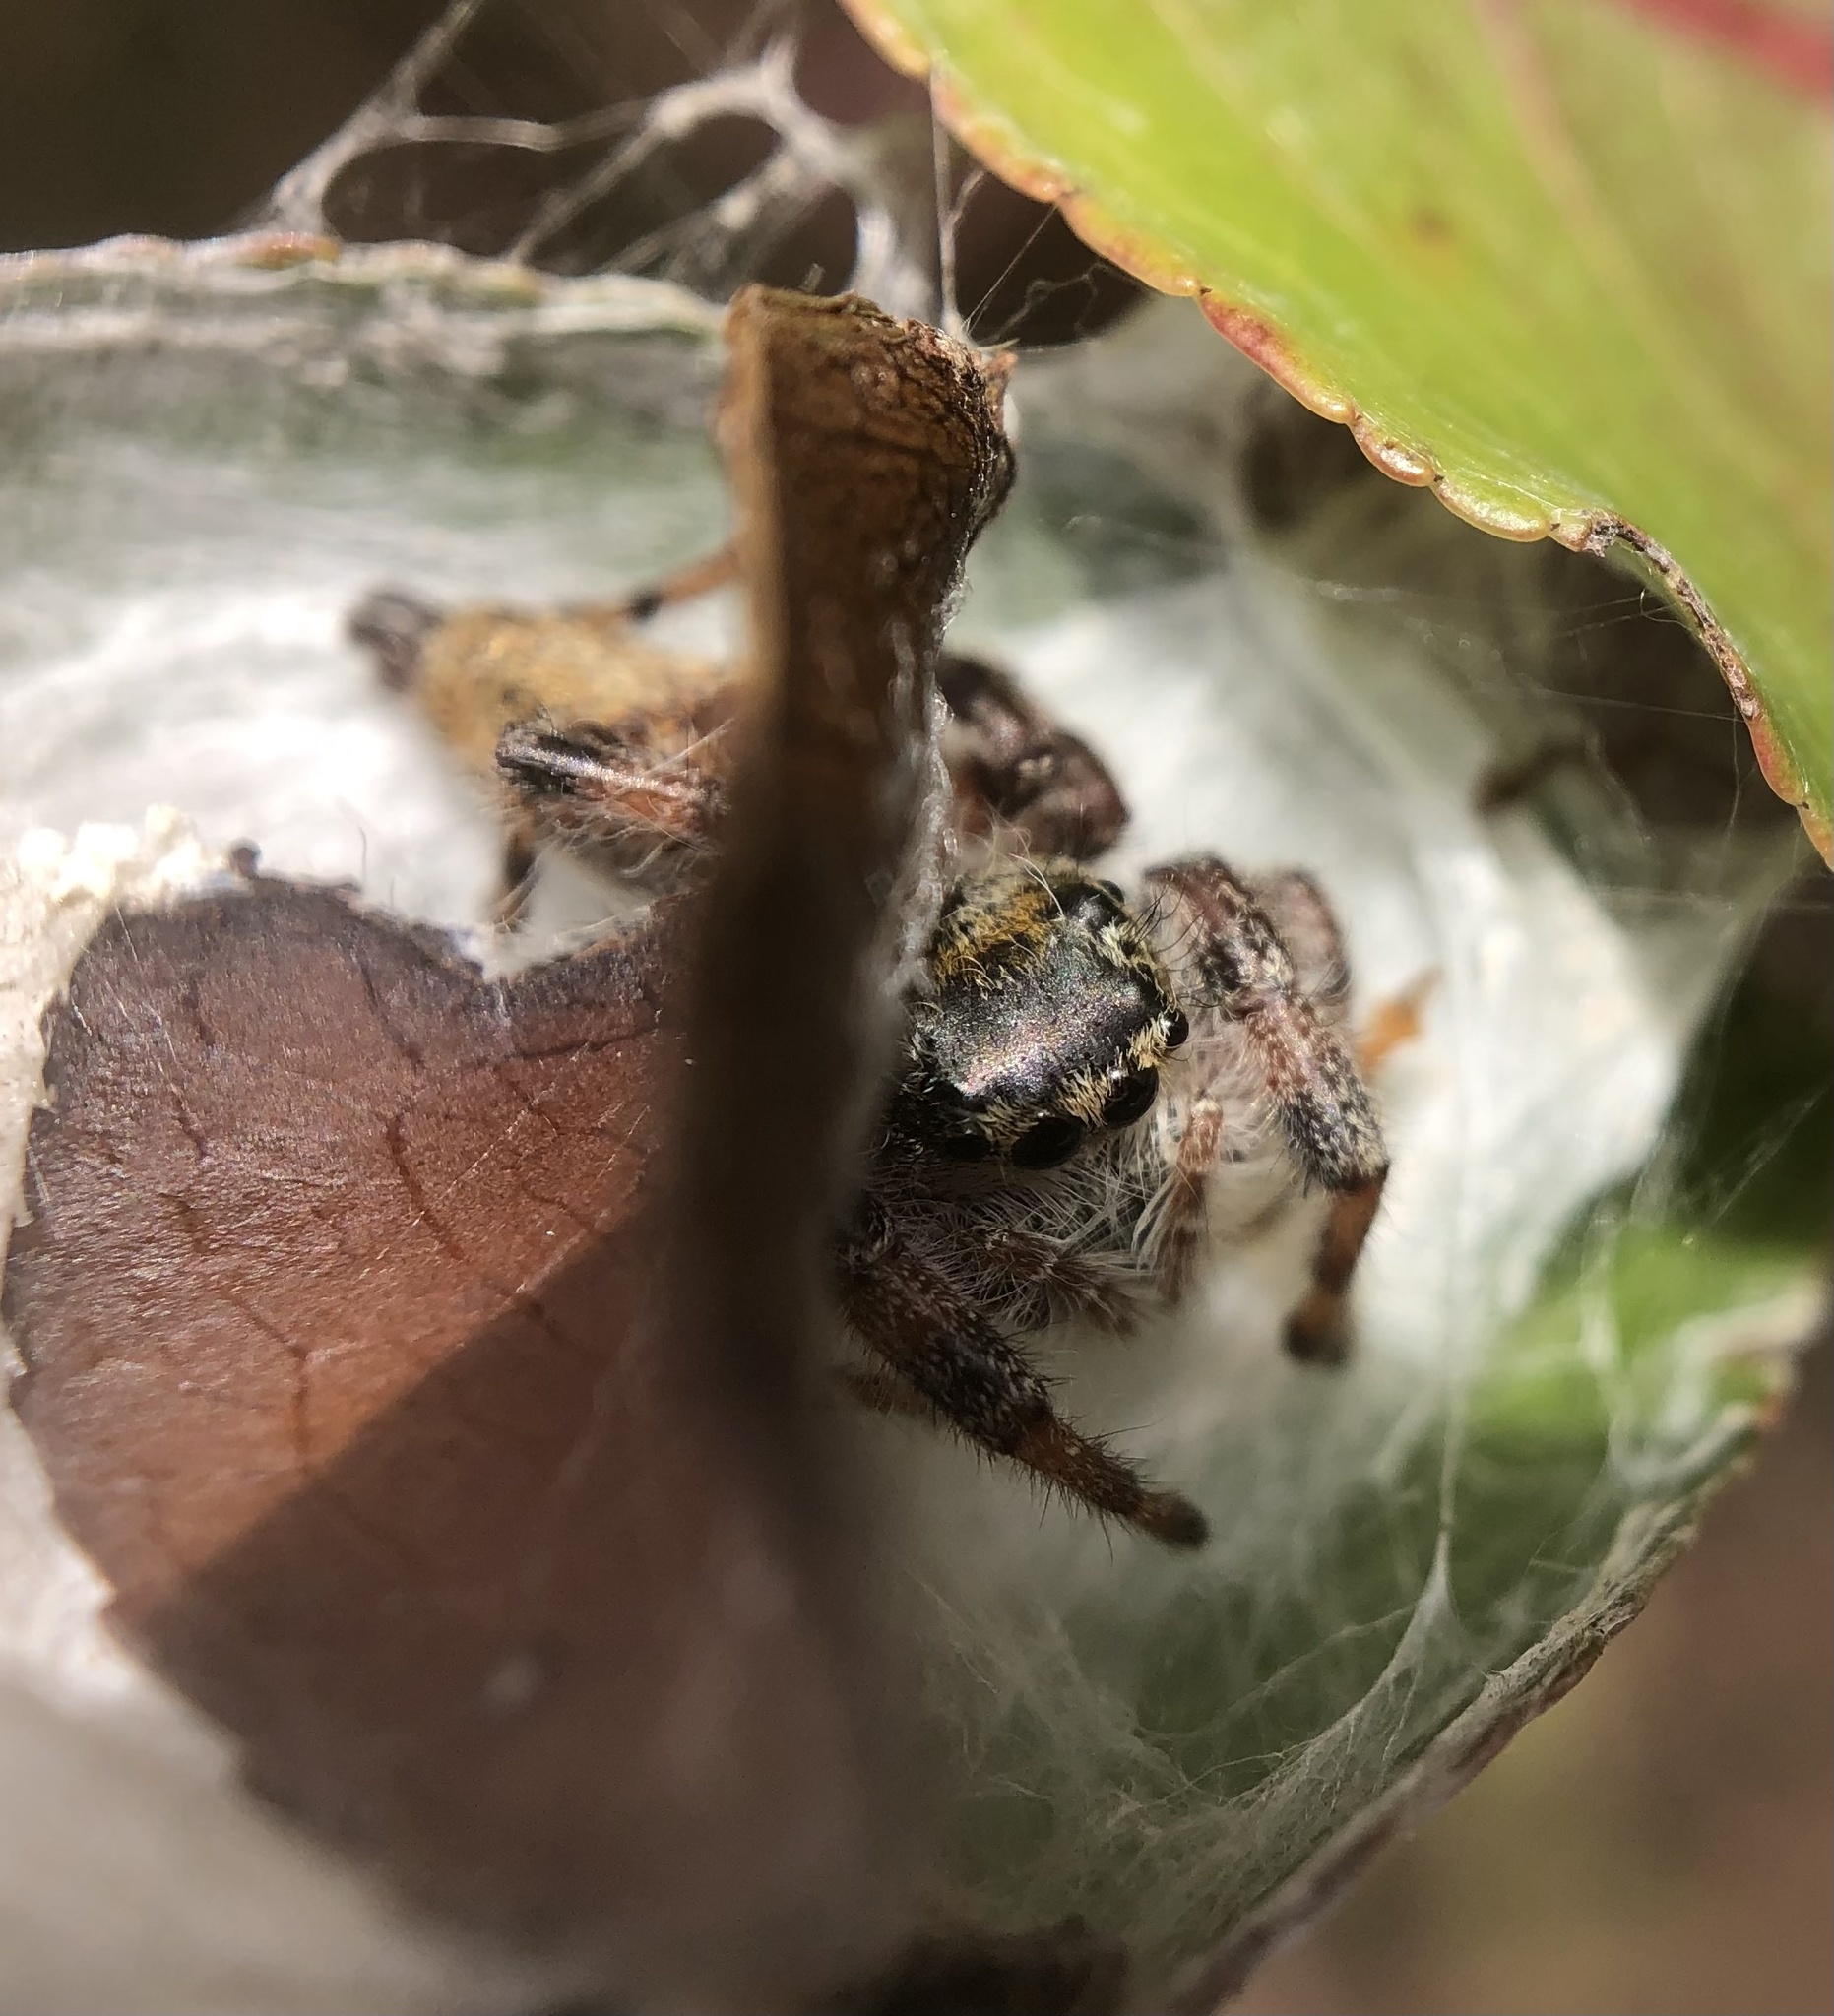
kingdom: Animalia
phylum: Arthropoda
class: Arachnida
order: Araneae
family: Salticidae
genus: Phidippus
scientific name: Phidippus clarus
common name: Brilliant jumping spider
